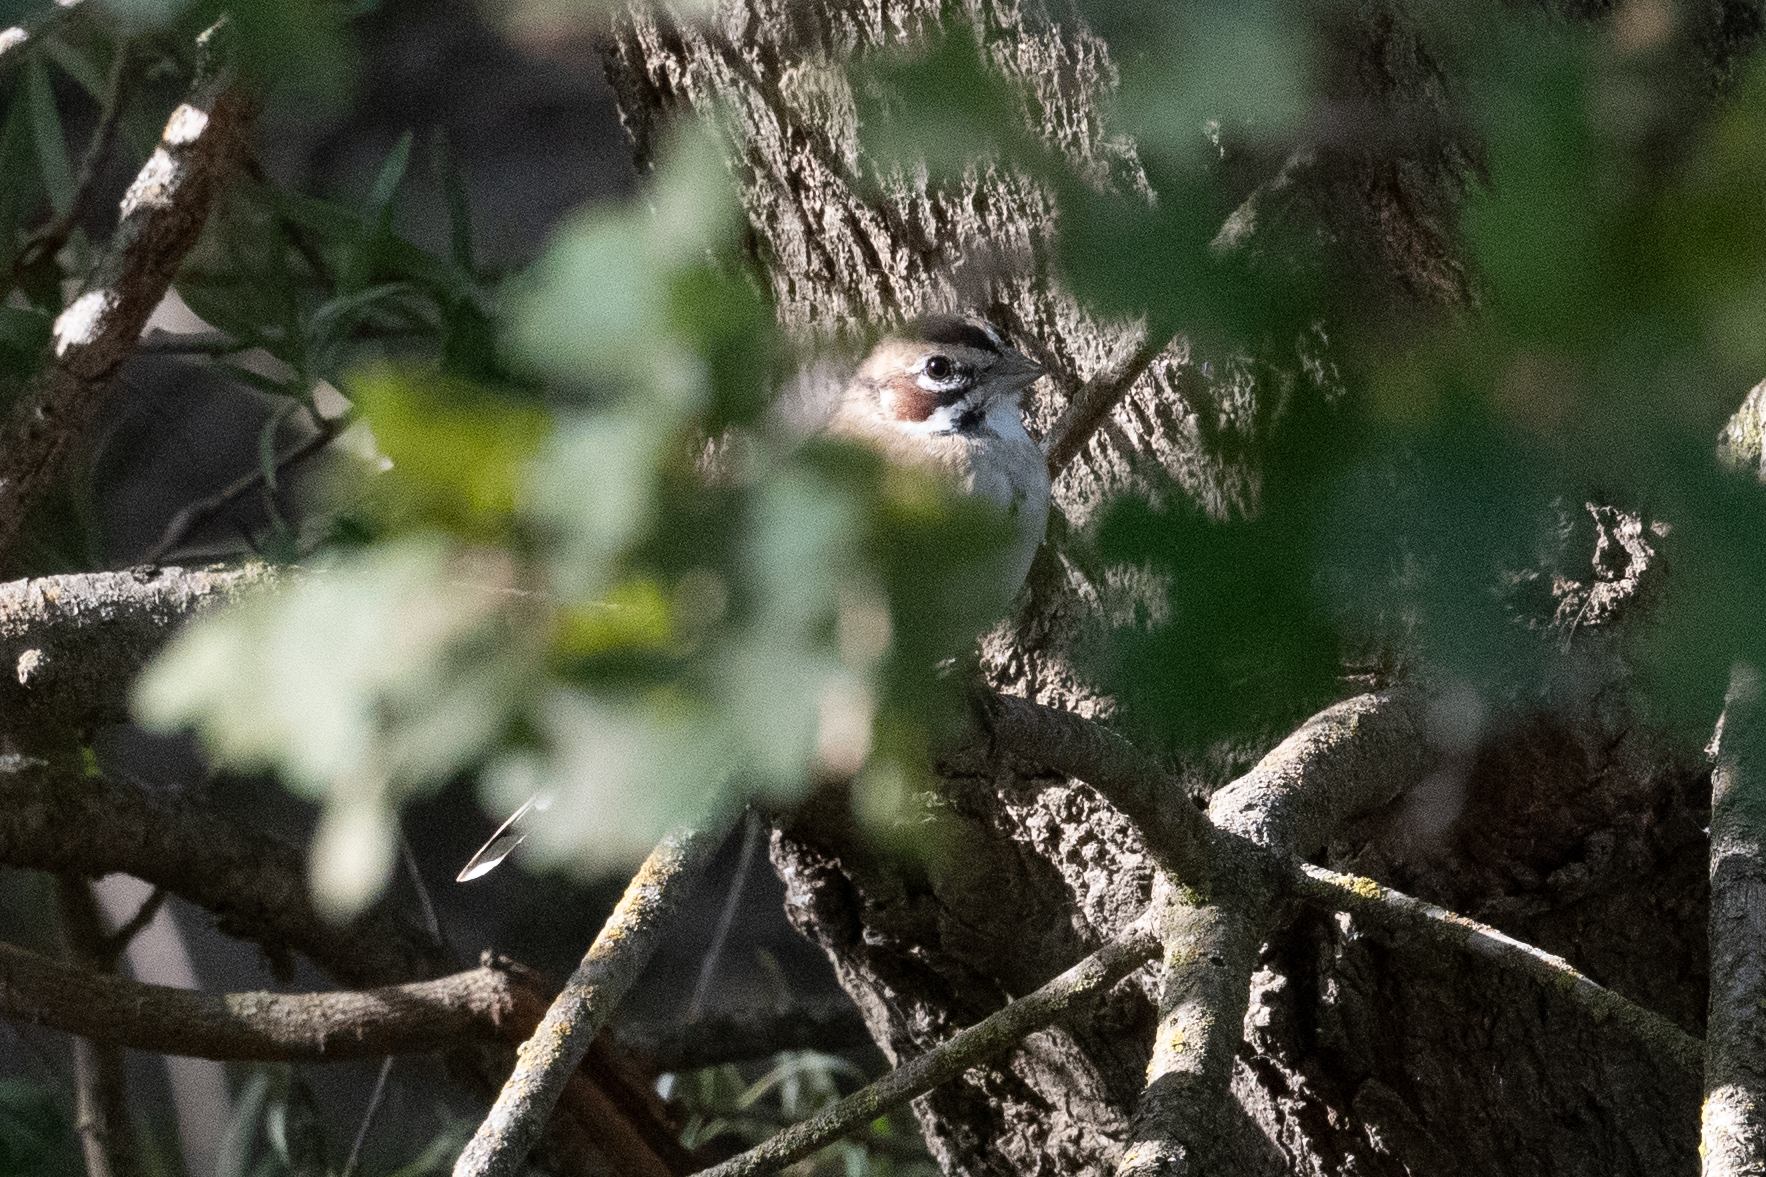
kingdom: Animalia
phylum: Chordata
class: Aves
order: Passeriformes
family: Passerellidae
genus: Chondestes
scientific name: Chondestes grammacus
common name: Lark sparrow
